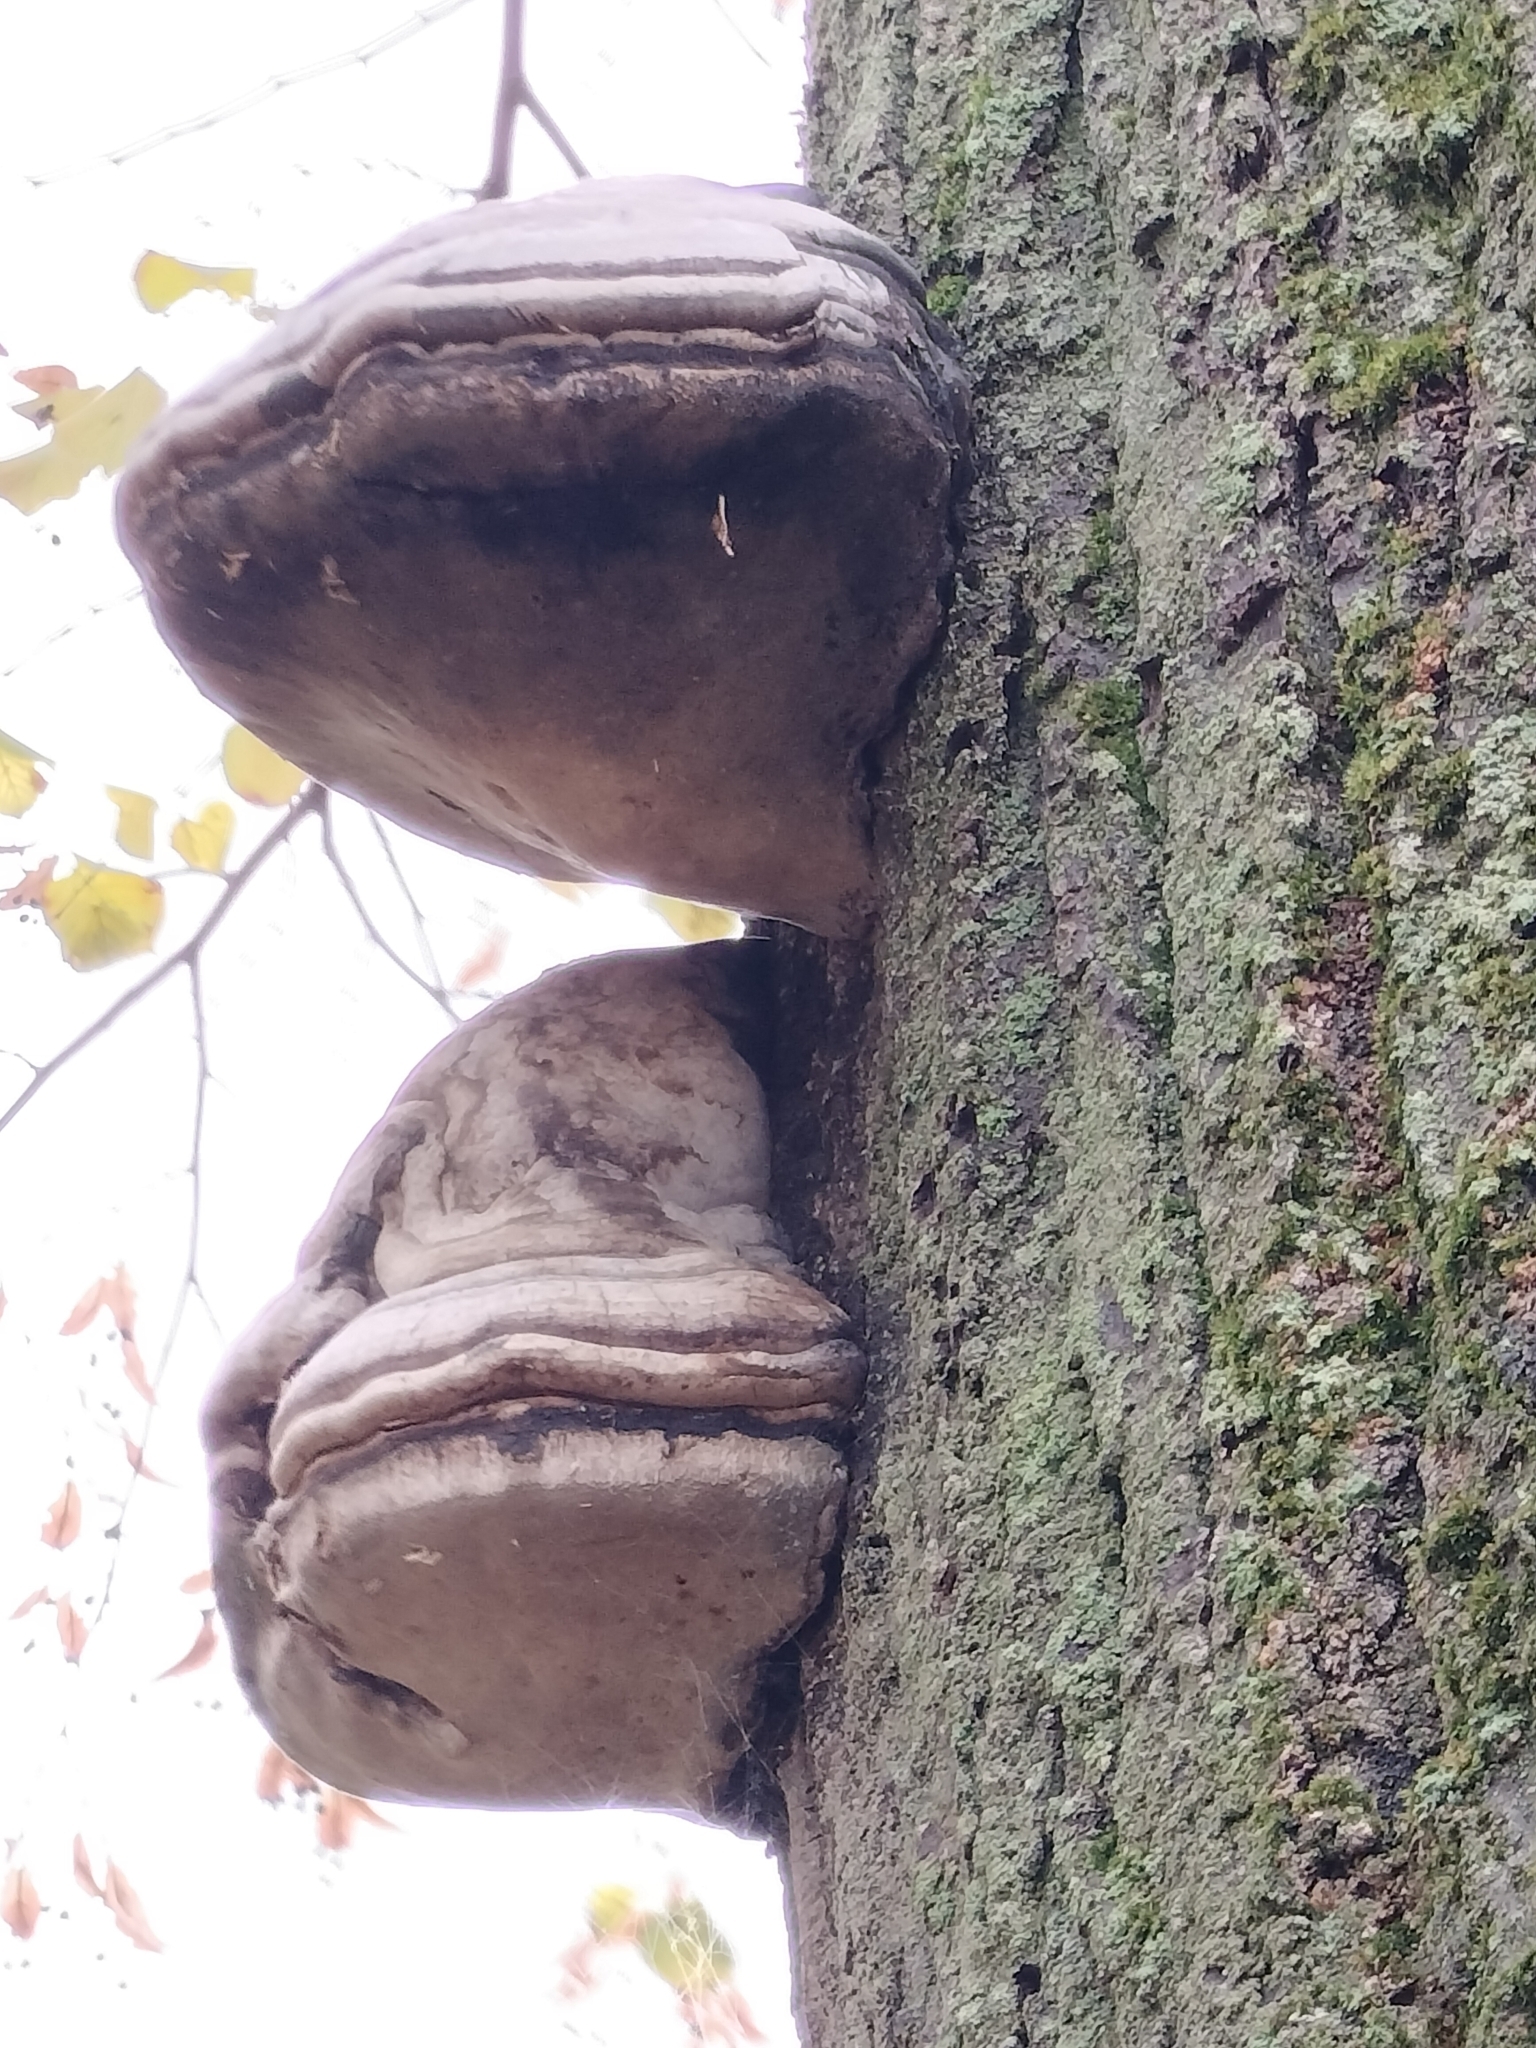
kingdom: Fungi
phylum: Basidiomycota
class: Agaricomycetes
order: Polyporales
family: Polyporaceae
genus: Fomes
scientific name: Fomes fomentarius
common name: Hoof fungus
